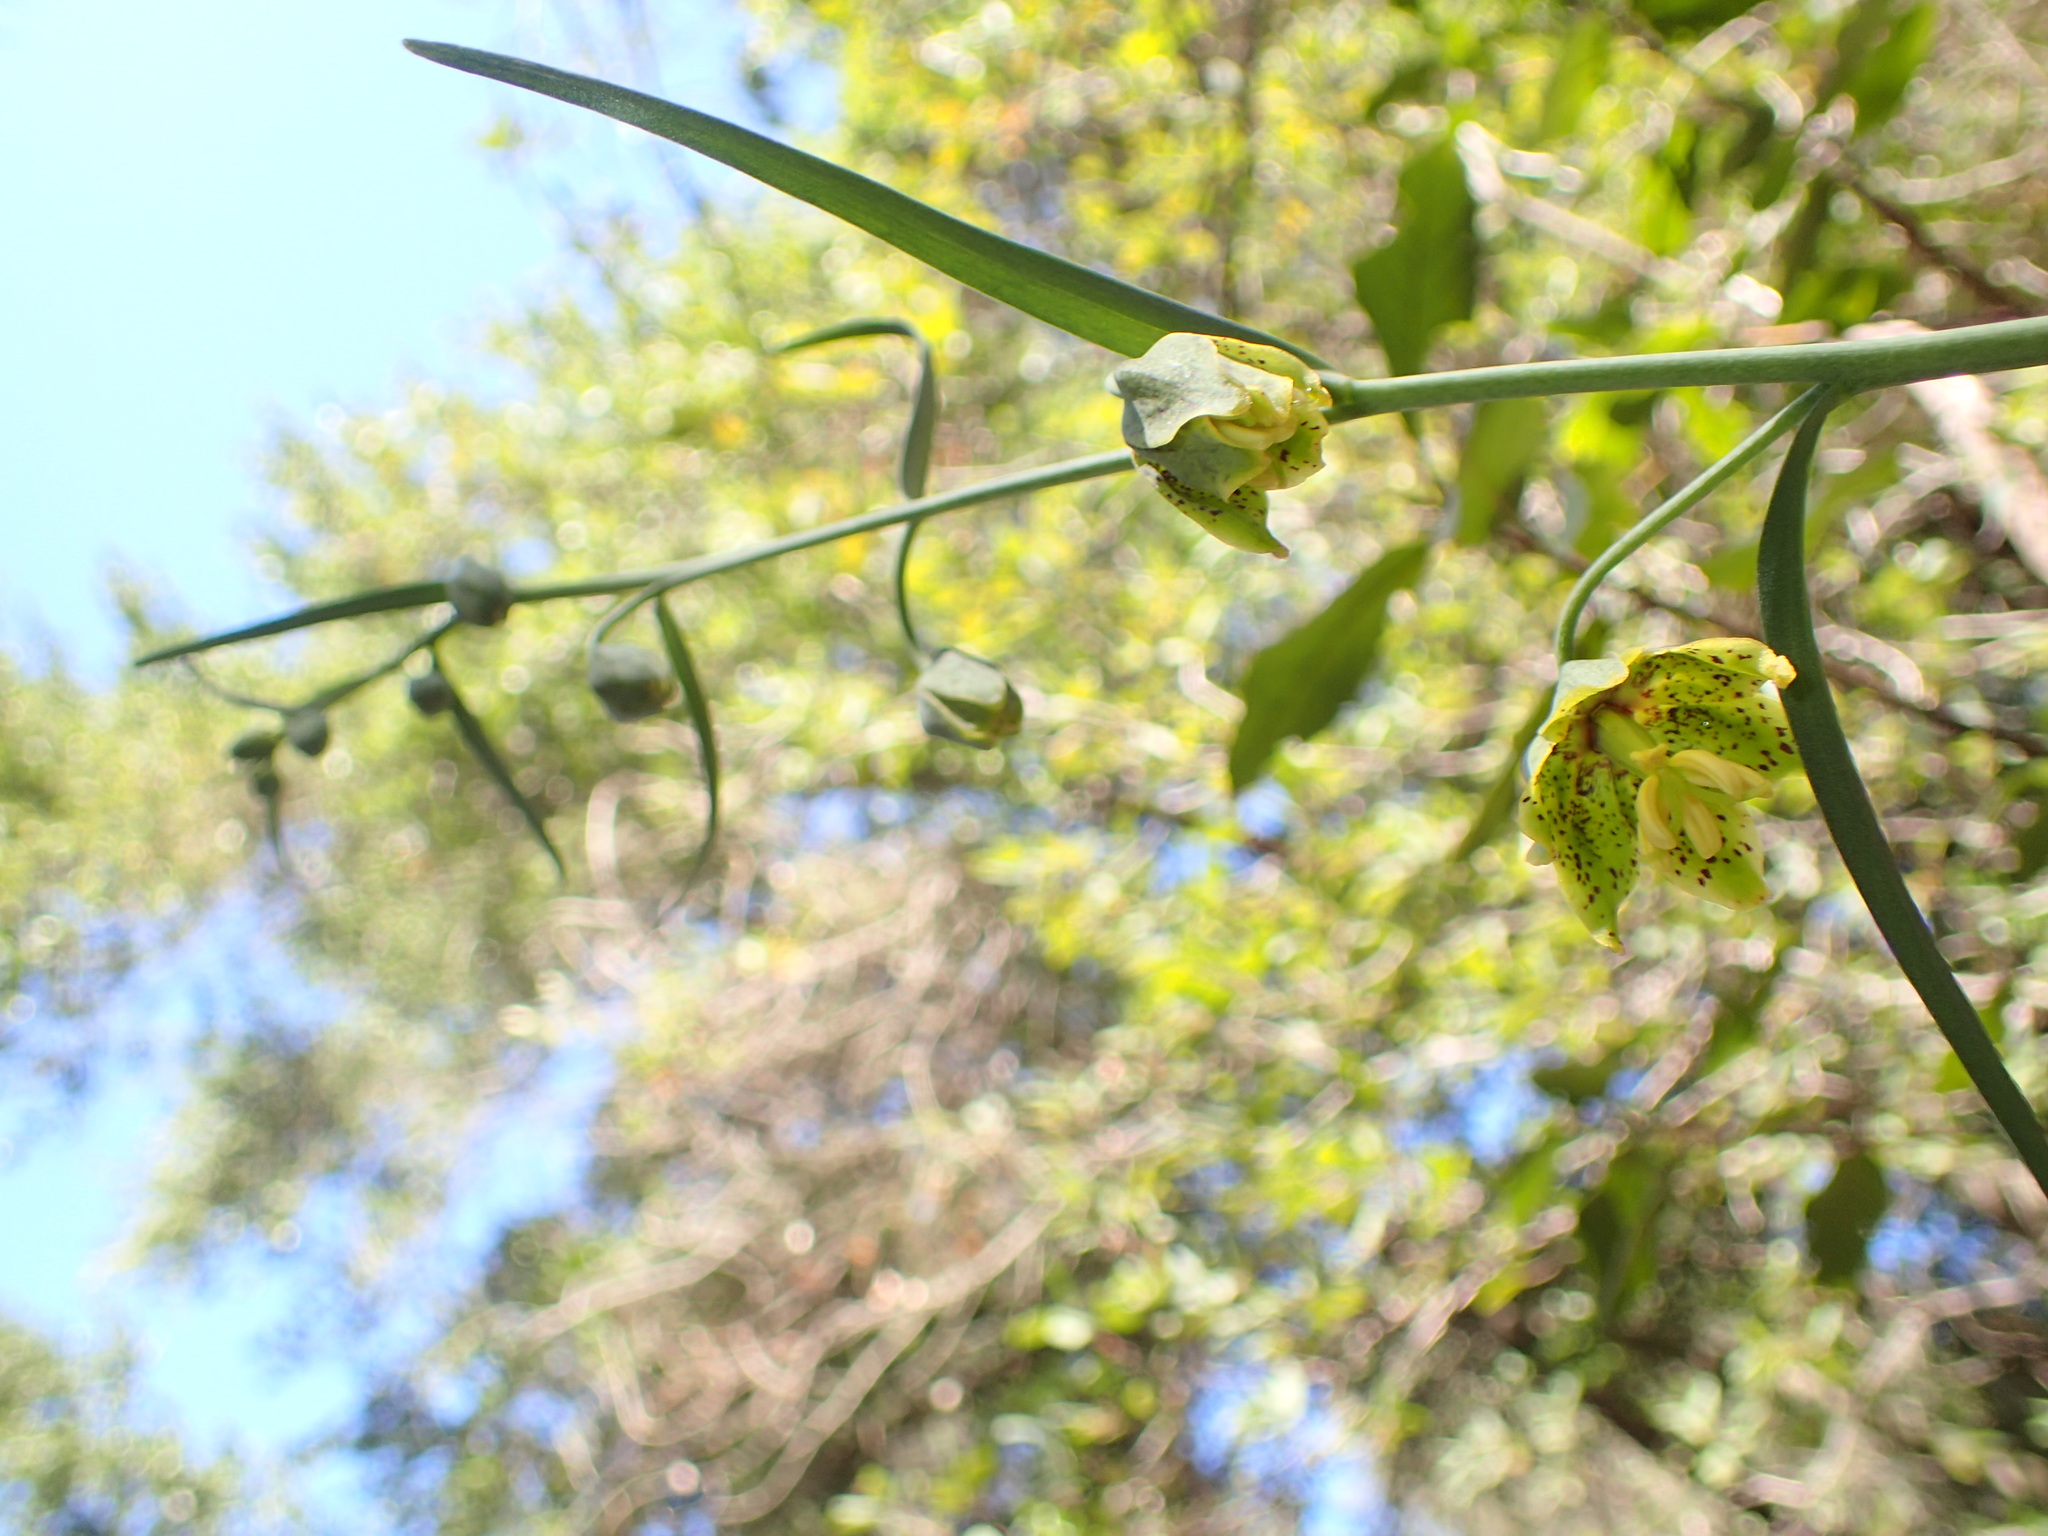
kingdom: Plantae
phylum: Tracheophyta
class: Liliopsida
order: Liliales
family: Liliaceae
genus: Fritillaria
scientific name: Fritillaria ojaiensis
